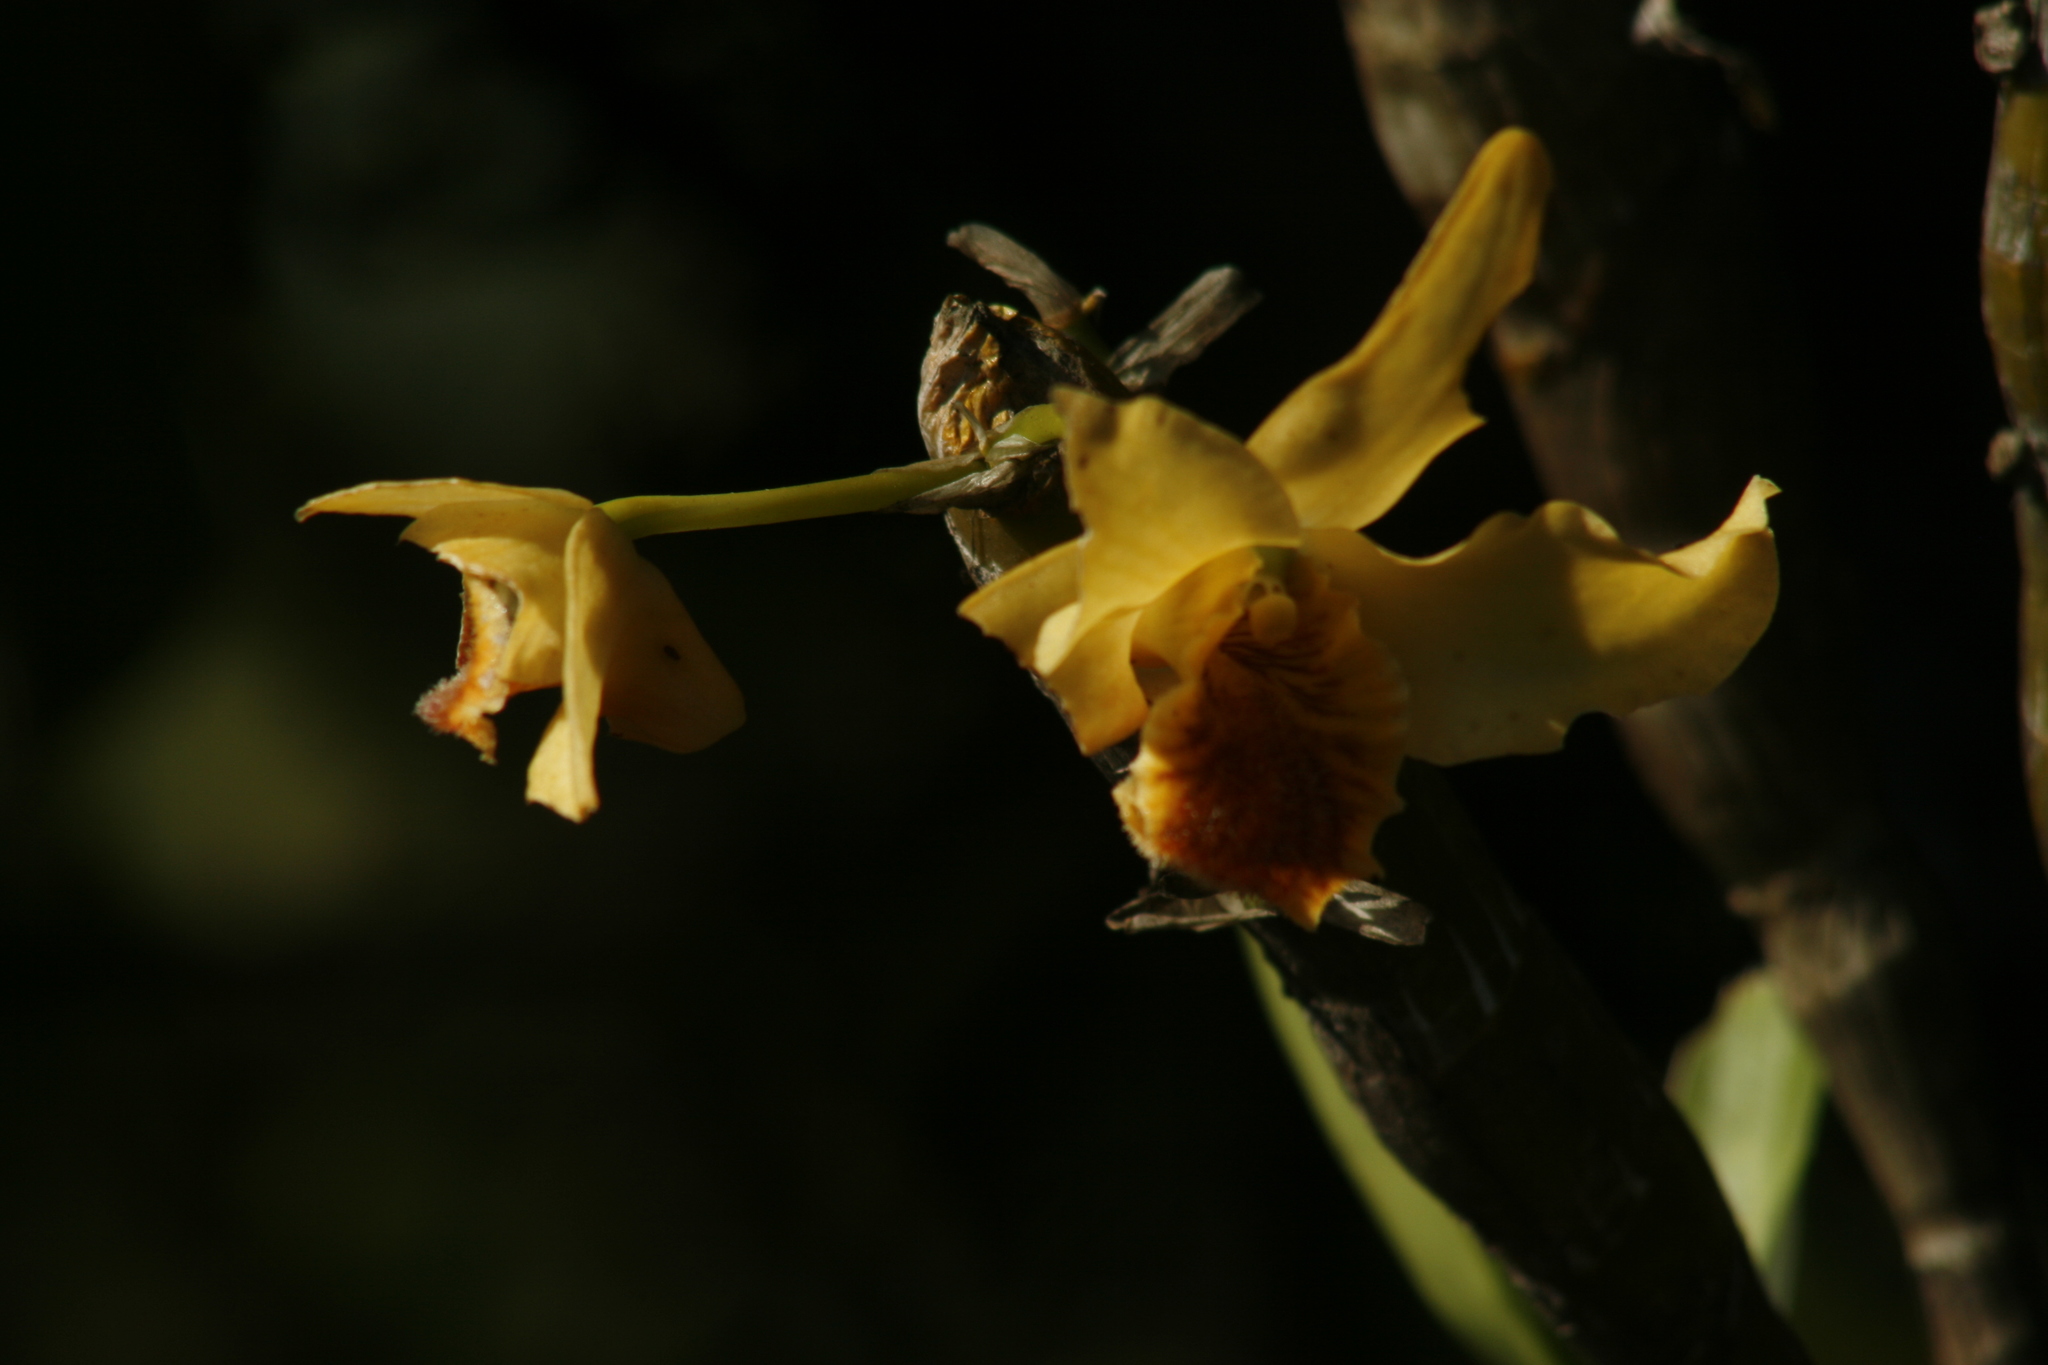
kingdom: Plantae
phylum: Tracheophyta
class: Liliopsida
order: Asparagales
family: Orchidaceae
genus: Dendrobium
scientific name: Dendrobium heterocarpum
